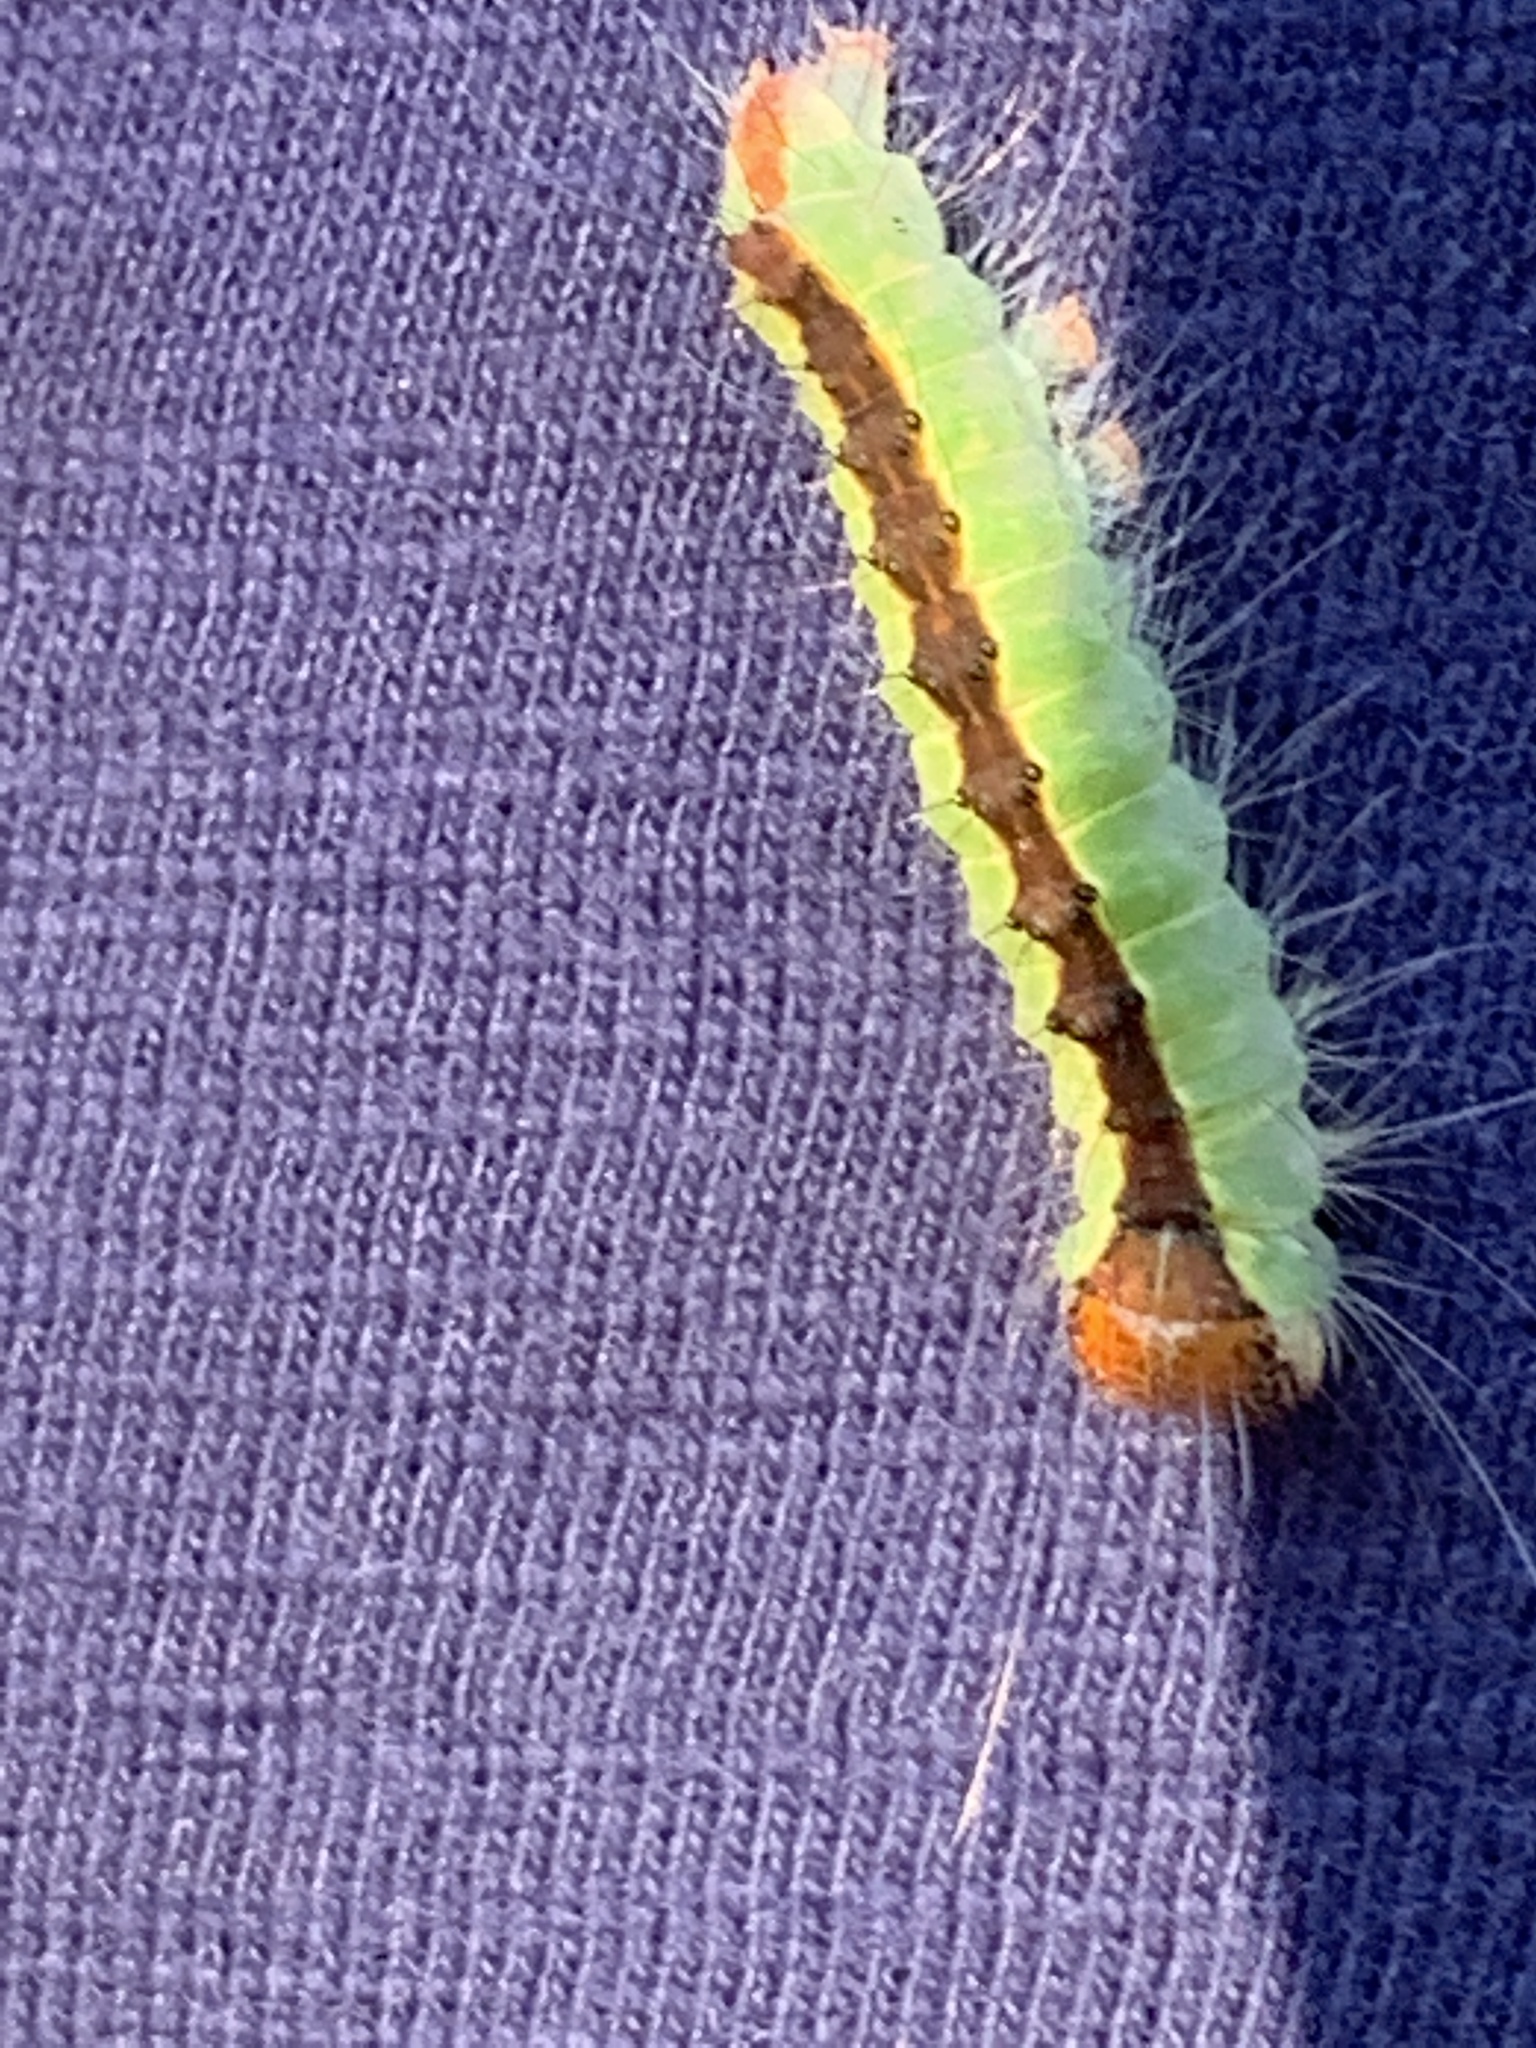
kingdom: Animalia
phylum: Arthropoda
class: Insecta
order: Lepidoptera
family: Noctuidae
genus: Acronicta
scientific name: Acronicta superans
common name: Splendid dagger
